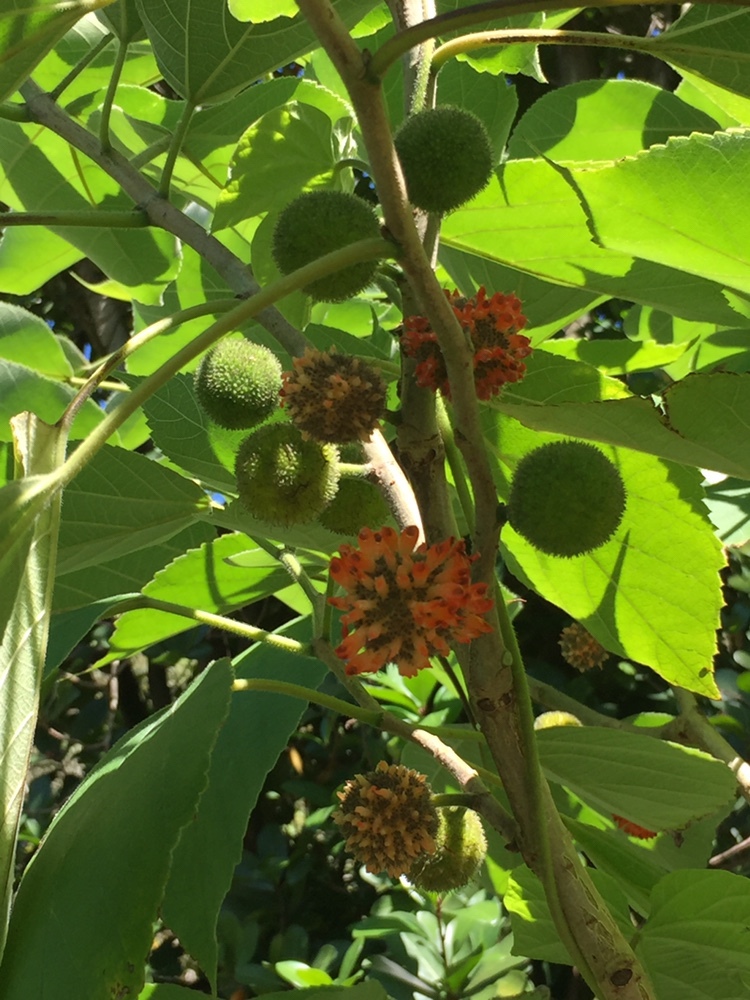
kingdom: Plantae
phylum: Tracheophyta
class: Magnoliopsida
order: Rosales
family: Moraceae
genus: Broussonetia
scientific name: Broussonetia papyrifera
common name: Paper mulberry
